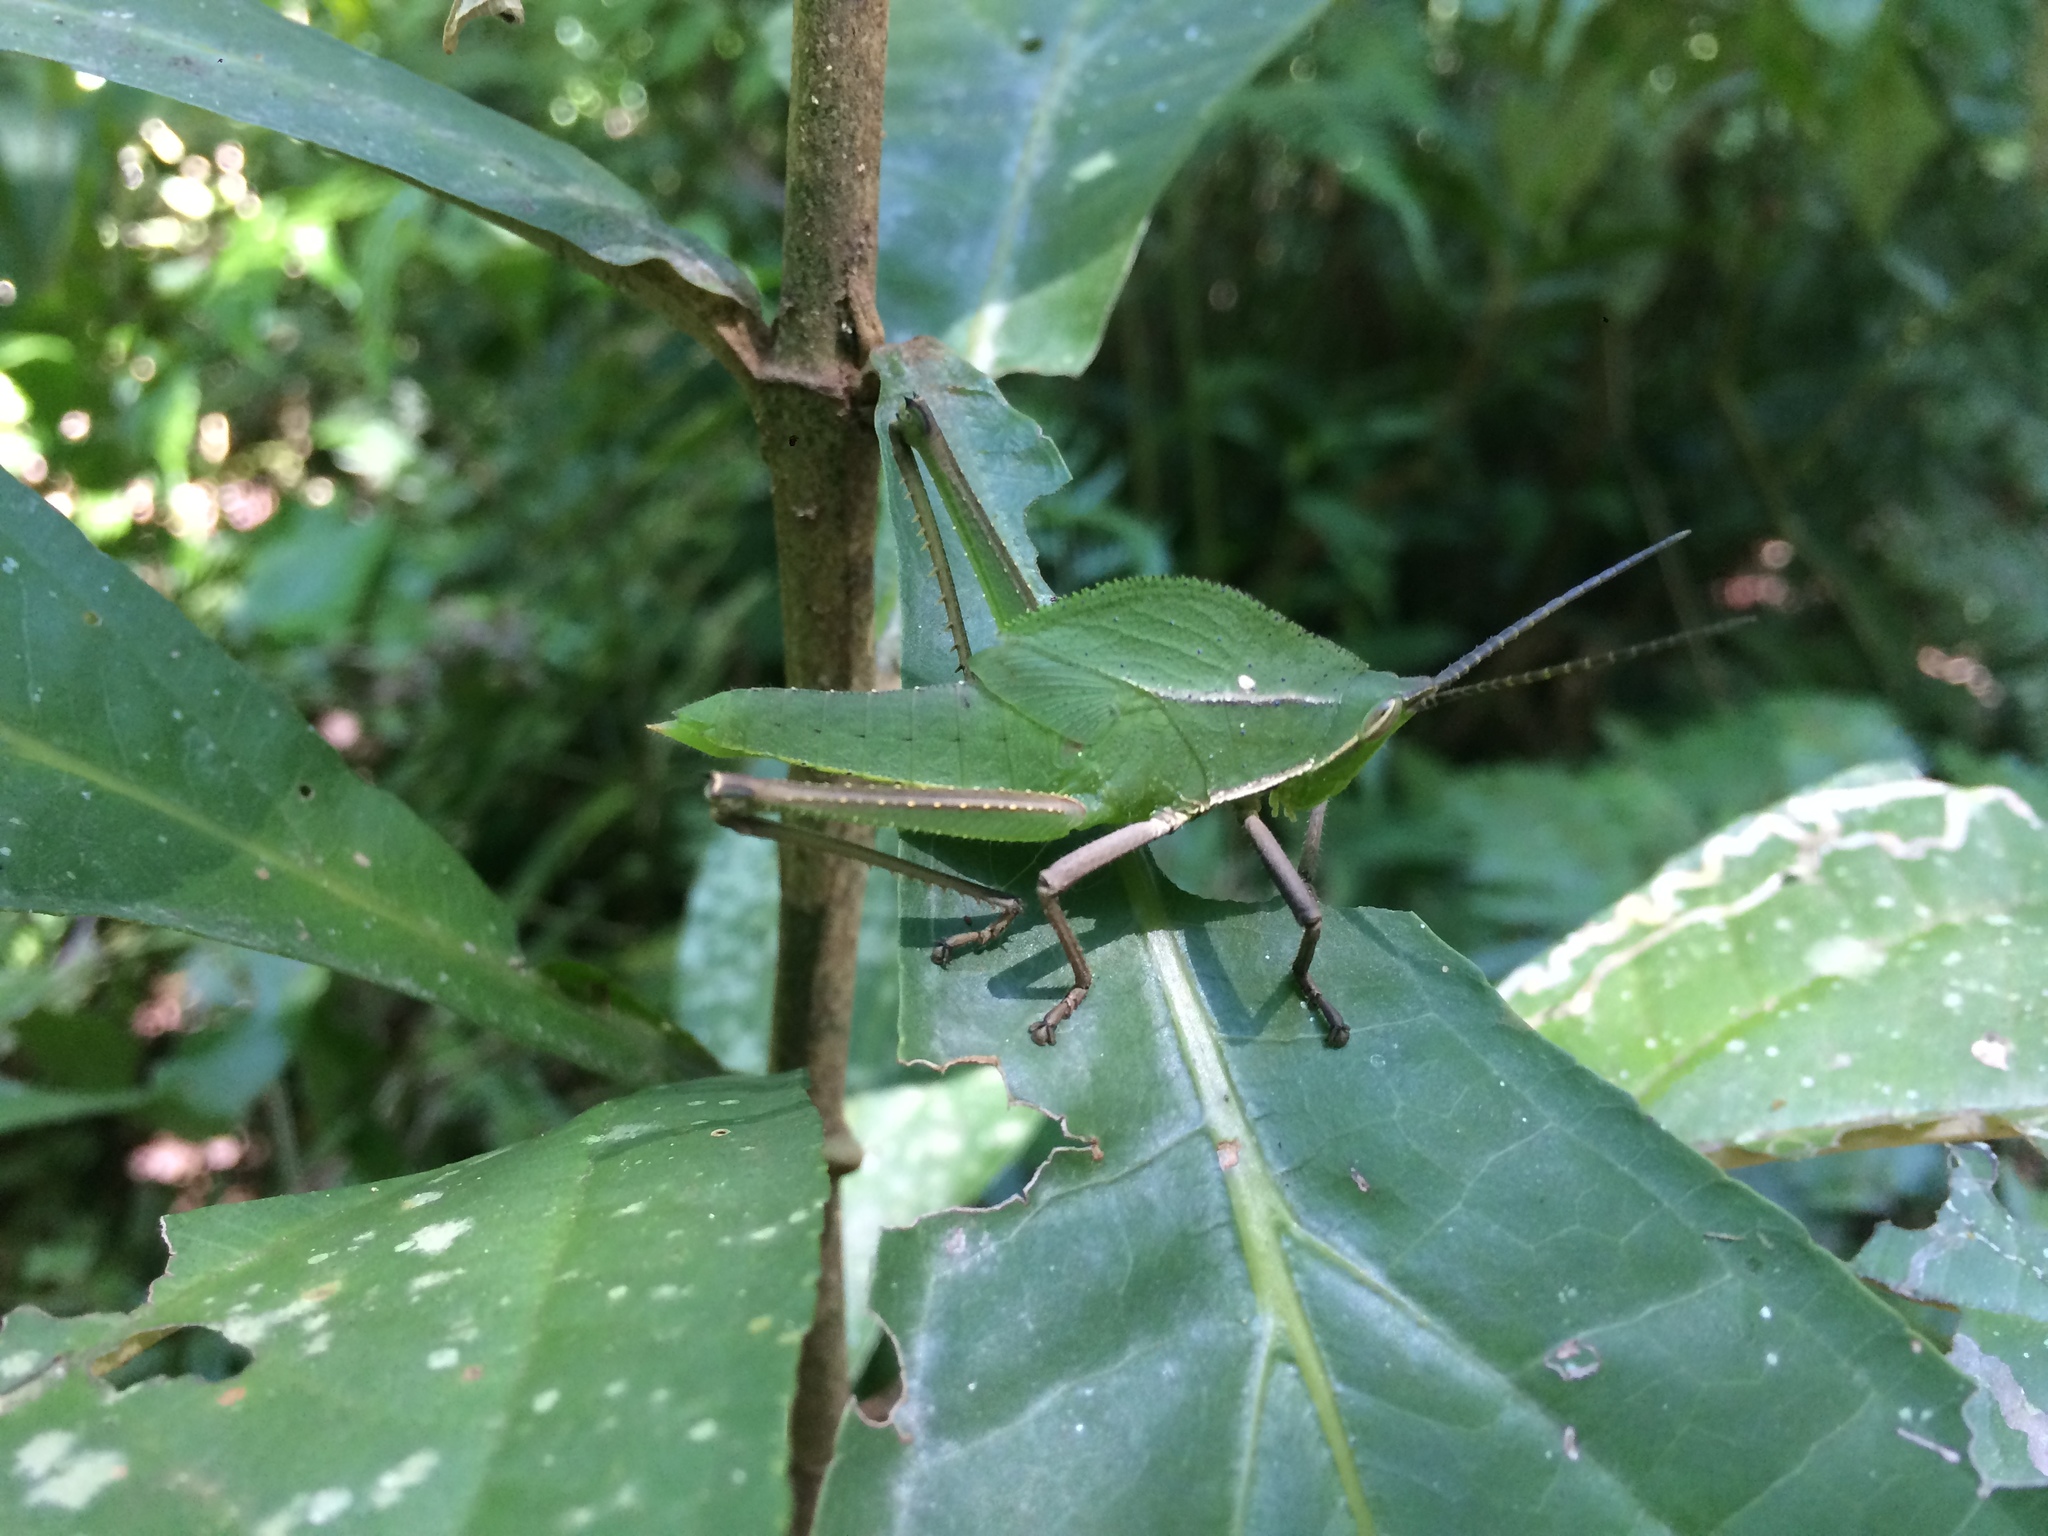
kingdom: Animalia
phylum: Arthropoda
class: Insecta
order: Orthoptera
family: Romaleidae
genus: Prionolopha
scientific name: Prionolopha serrata
